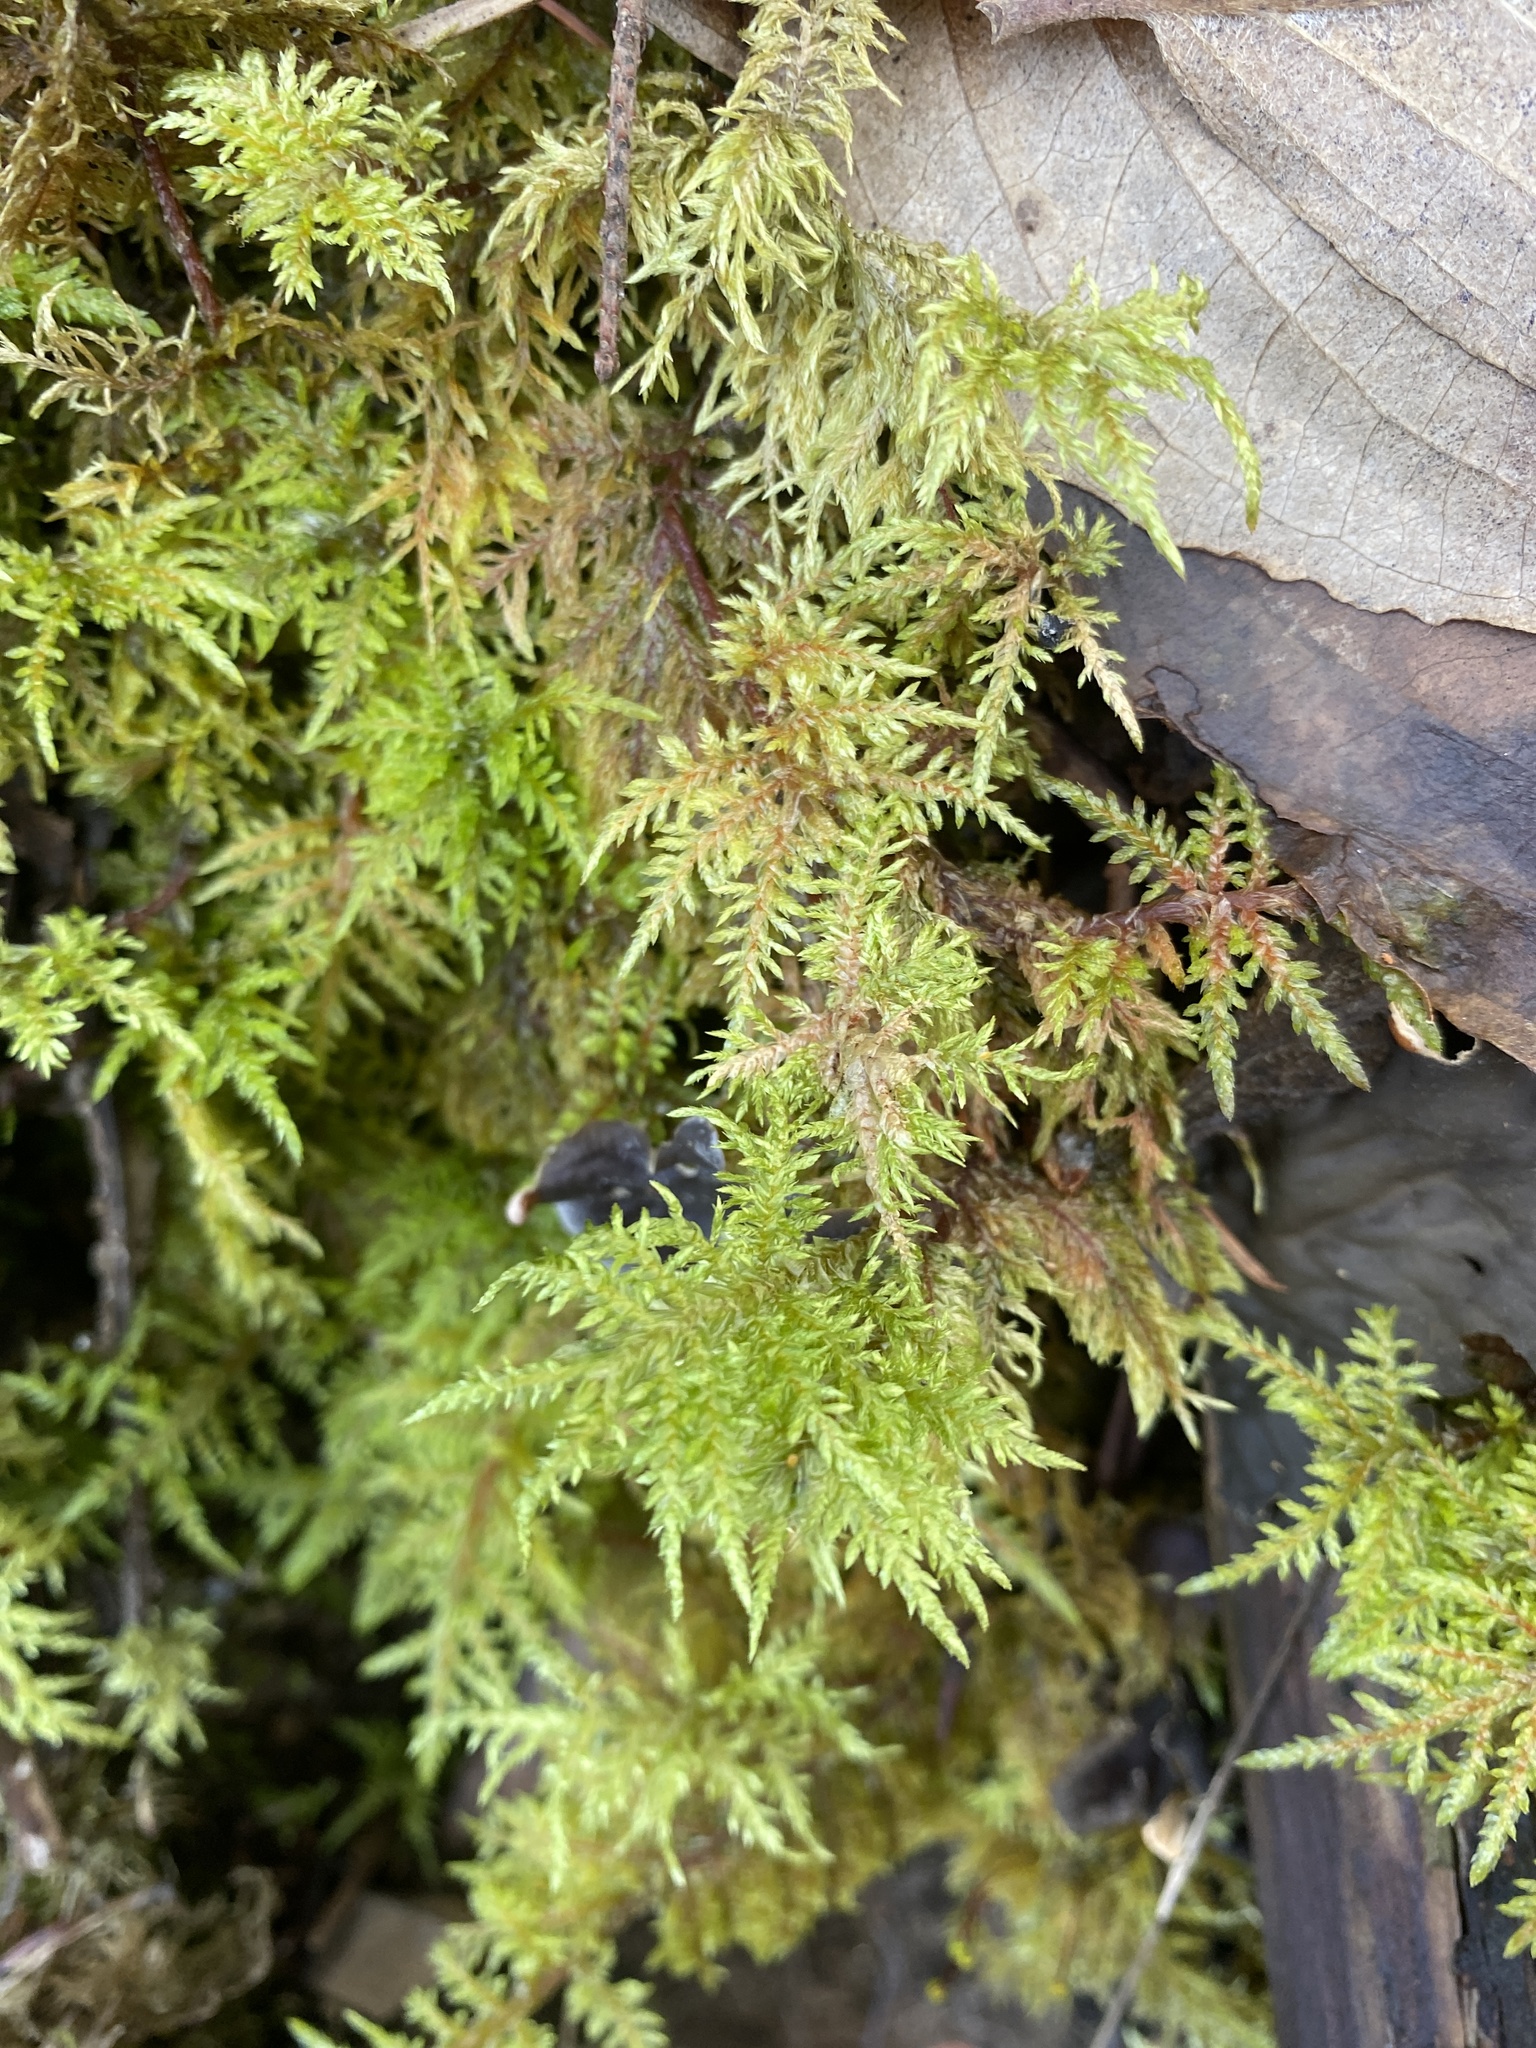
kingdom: Plantae
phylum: Bryophyta
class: Bryopsida
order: Hypnales
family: Hylocomiaceae
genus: Hylocomium
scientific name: Hylocomium splendens
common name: Stairstep moss
